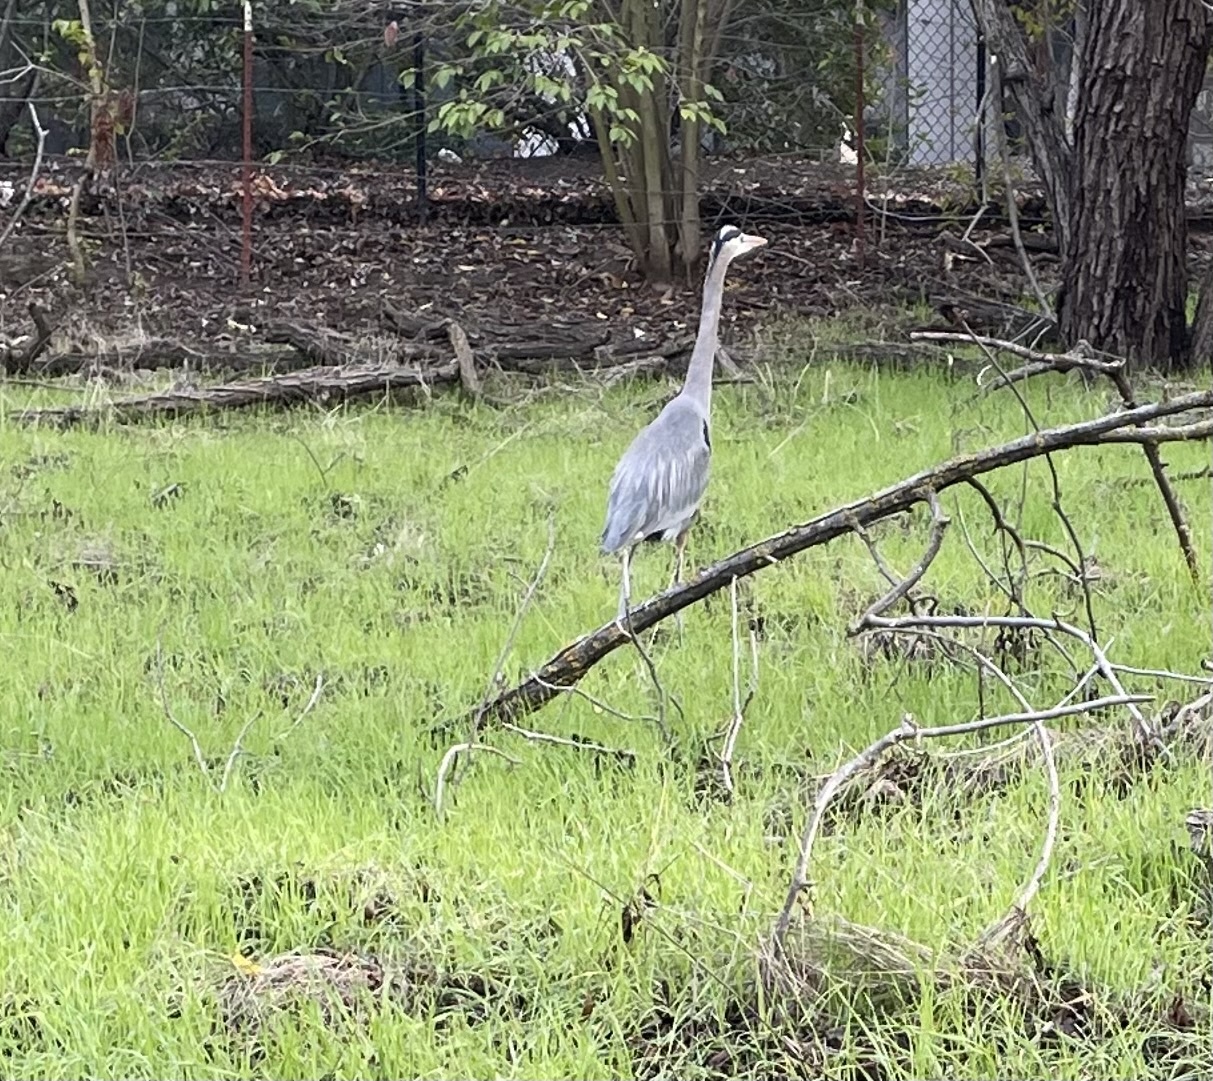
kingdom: Animalia
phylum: Chordata
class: Aves
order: Pelecaniformes
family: Ardeidae
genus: Ardea
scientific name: Ardea herodias
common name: Great blue heron
